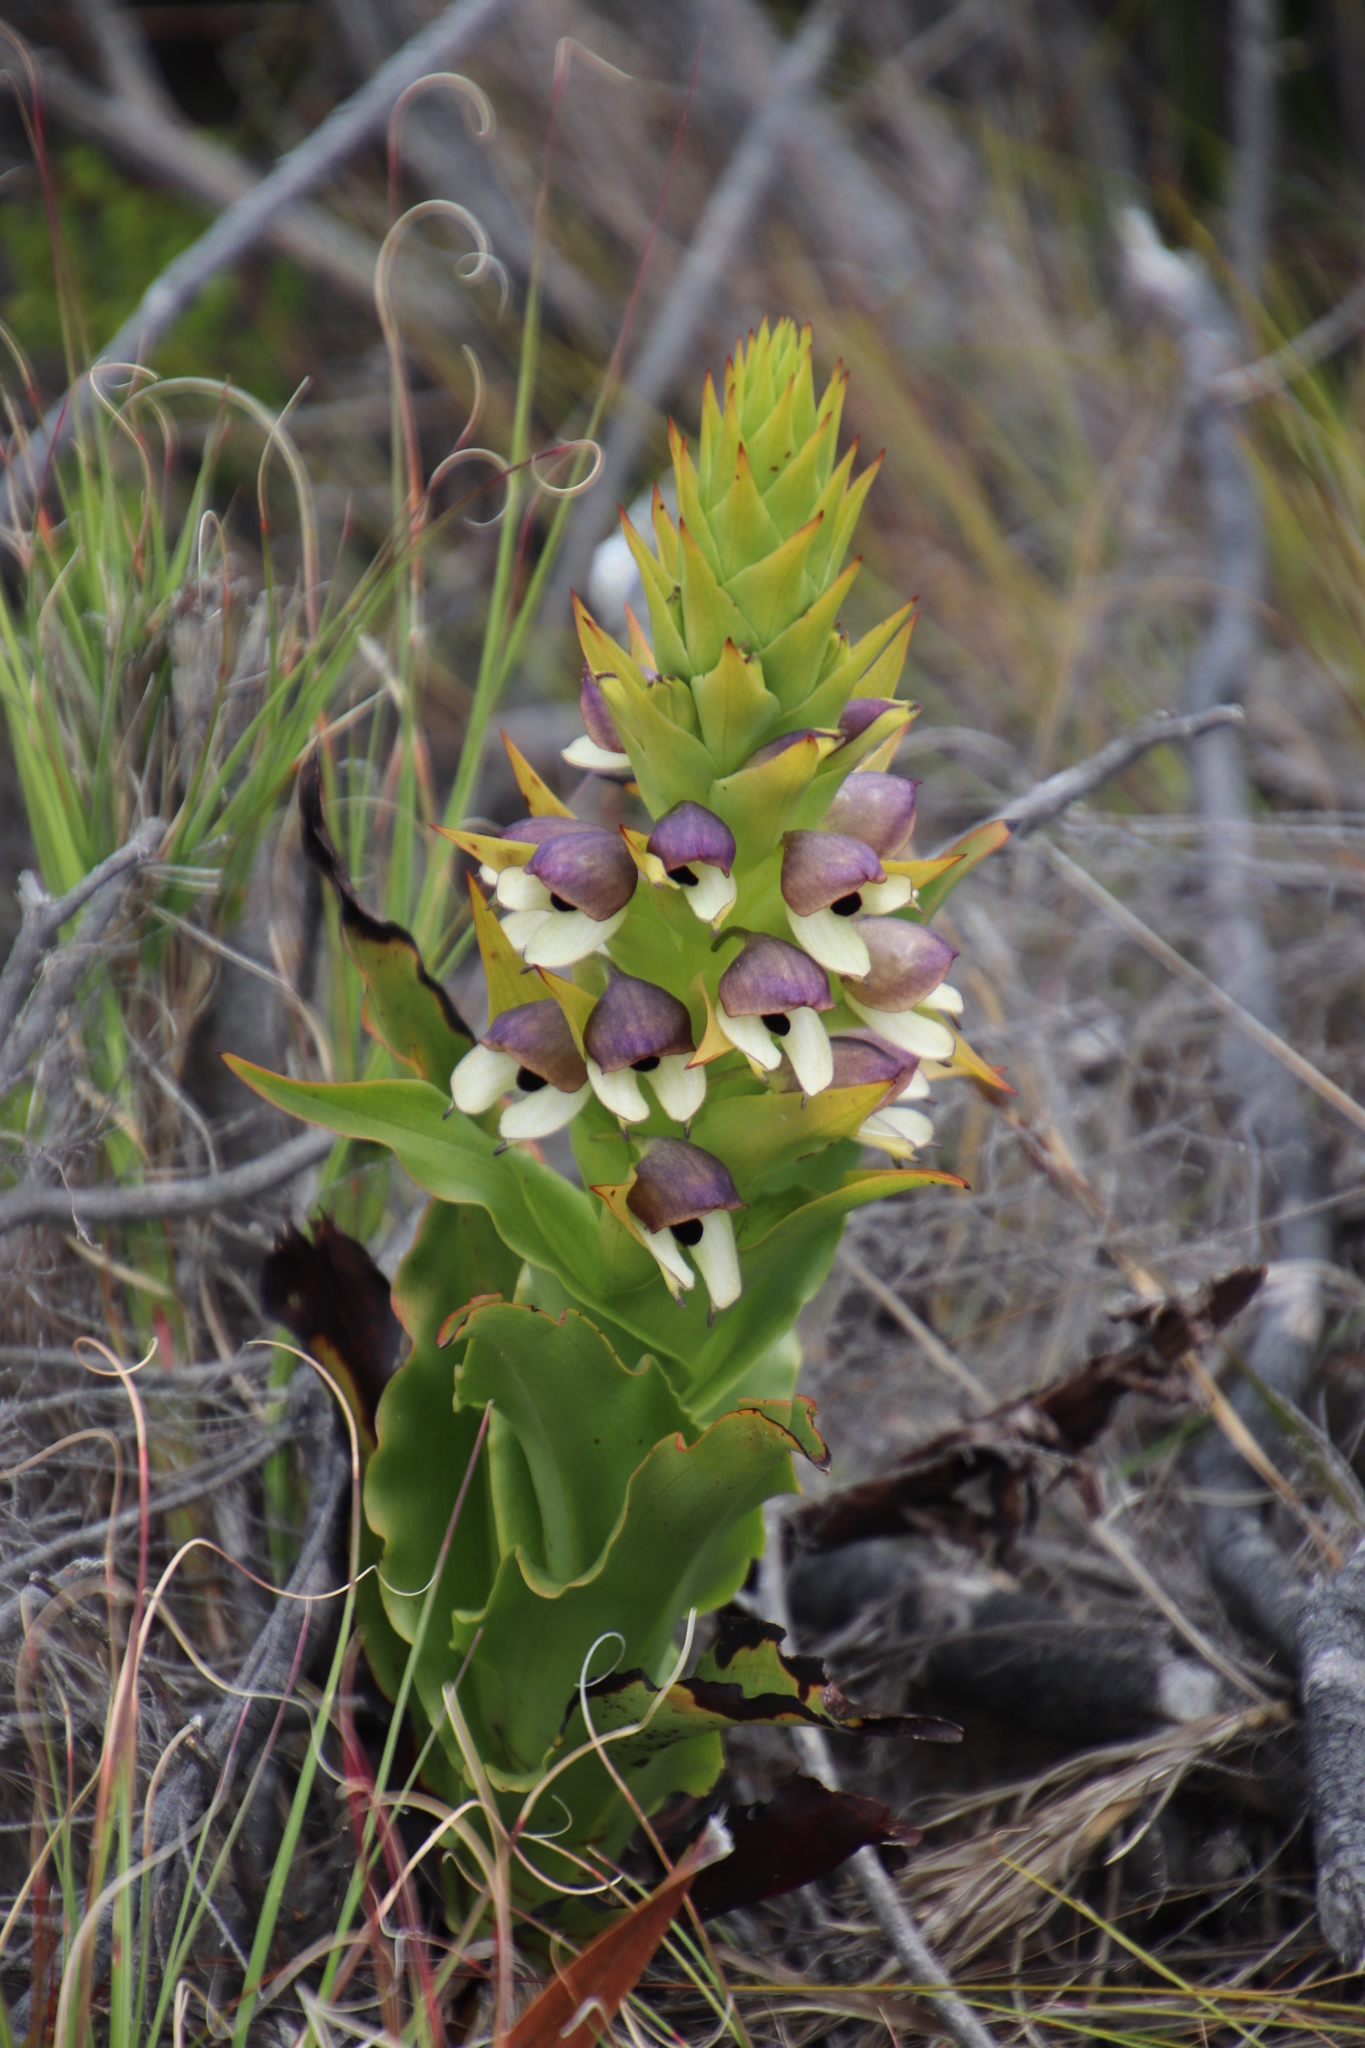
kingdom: Plantae
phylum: Tracheophyta
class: Liliopsida
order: Asparagales
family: Orchidaceae
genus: Disa
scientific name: Disa cornuta
